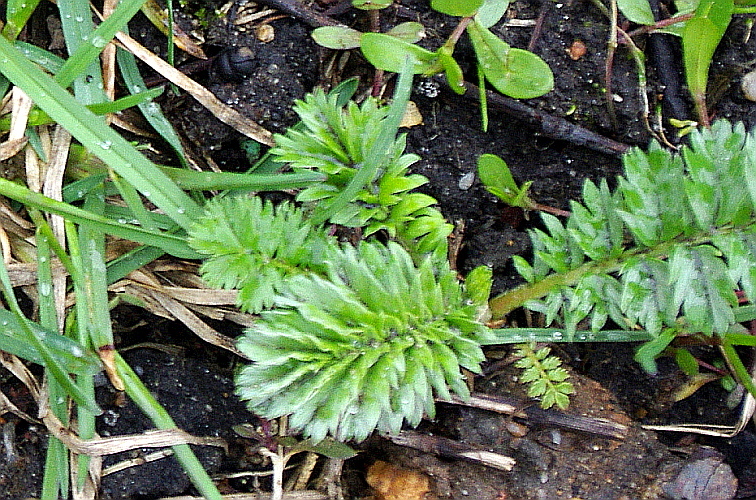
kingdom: Plantae
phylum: Tracheophyta
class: Magnoliopsida
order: Rosales
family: Rosaceae
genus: Potentilla
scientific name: Potentilla supina
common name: Prostrate cinquefoil
